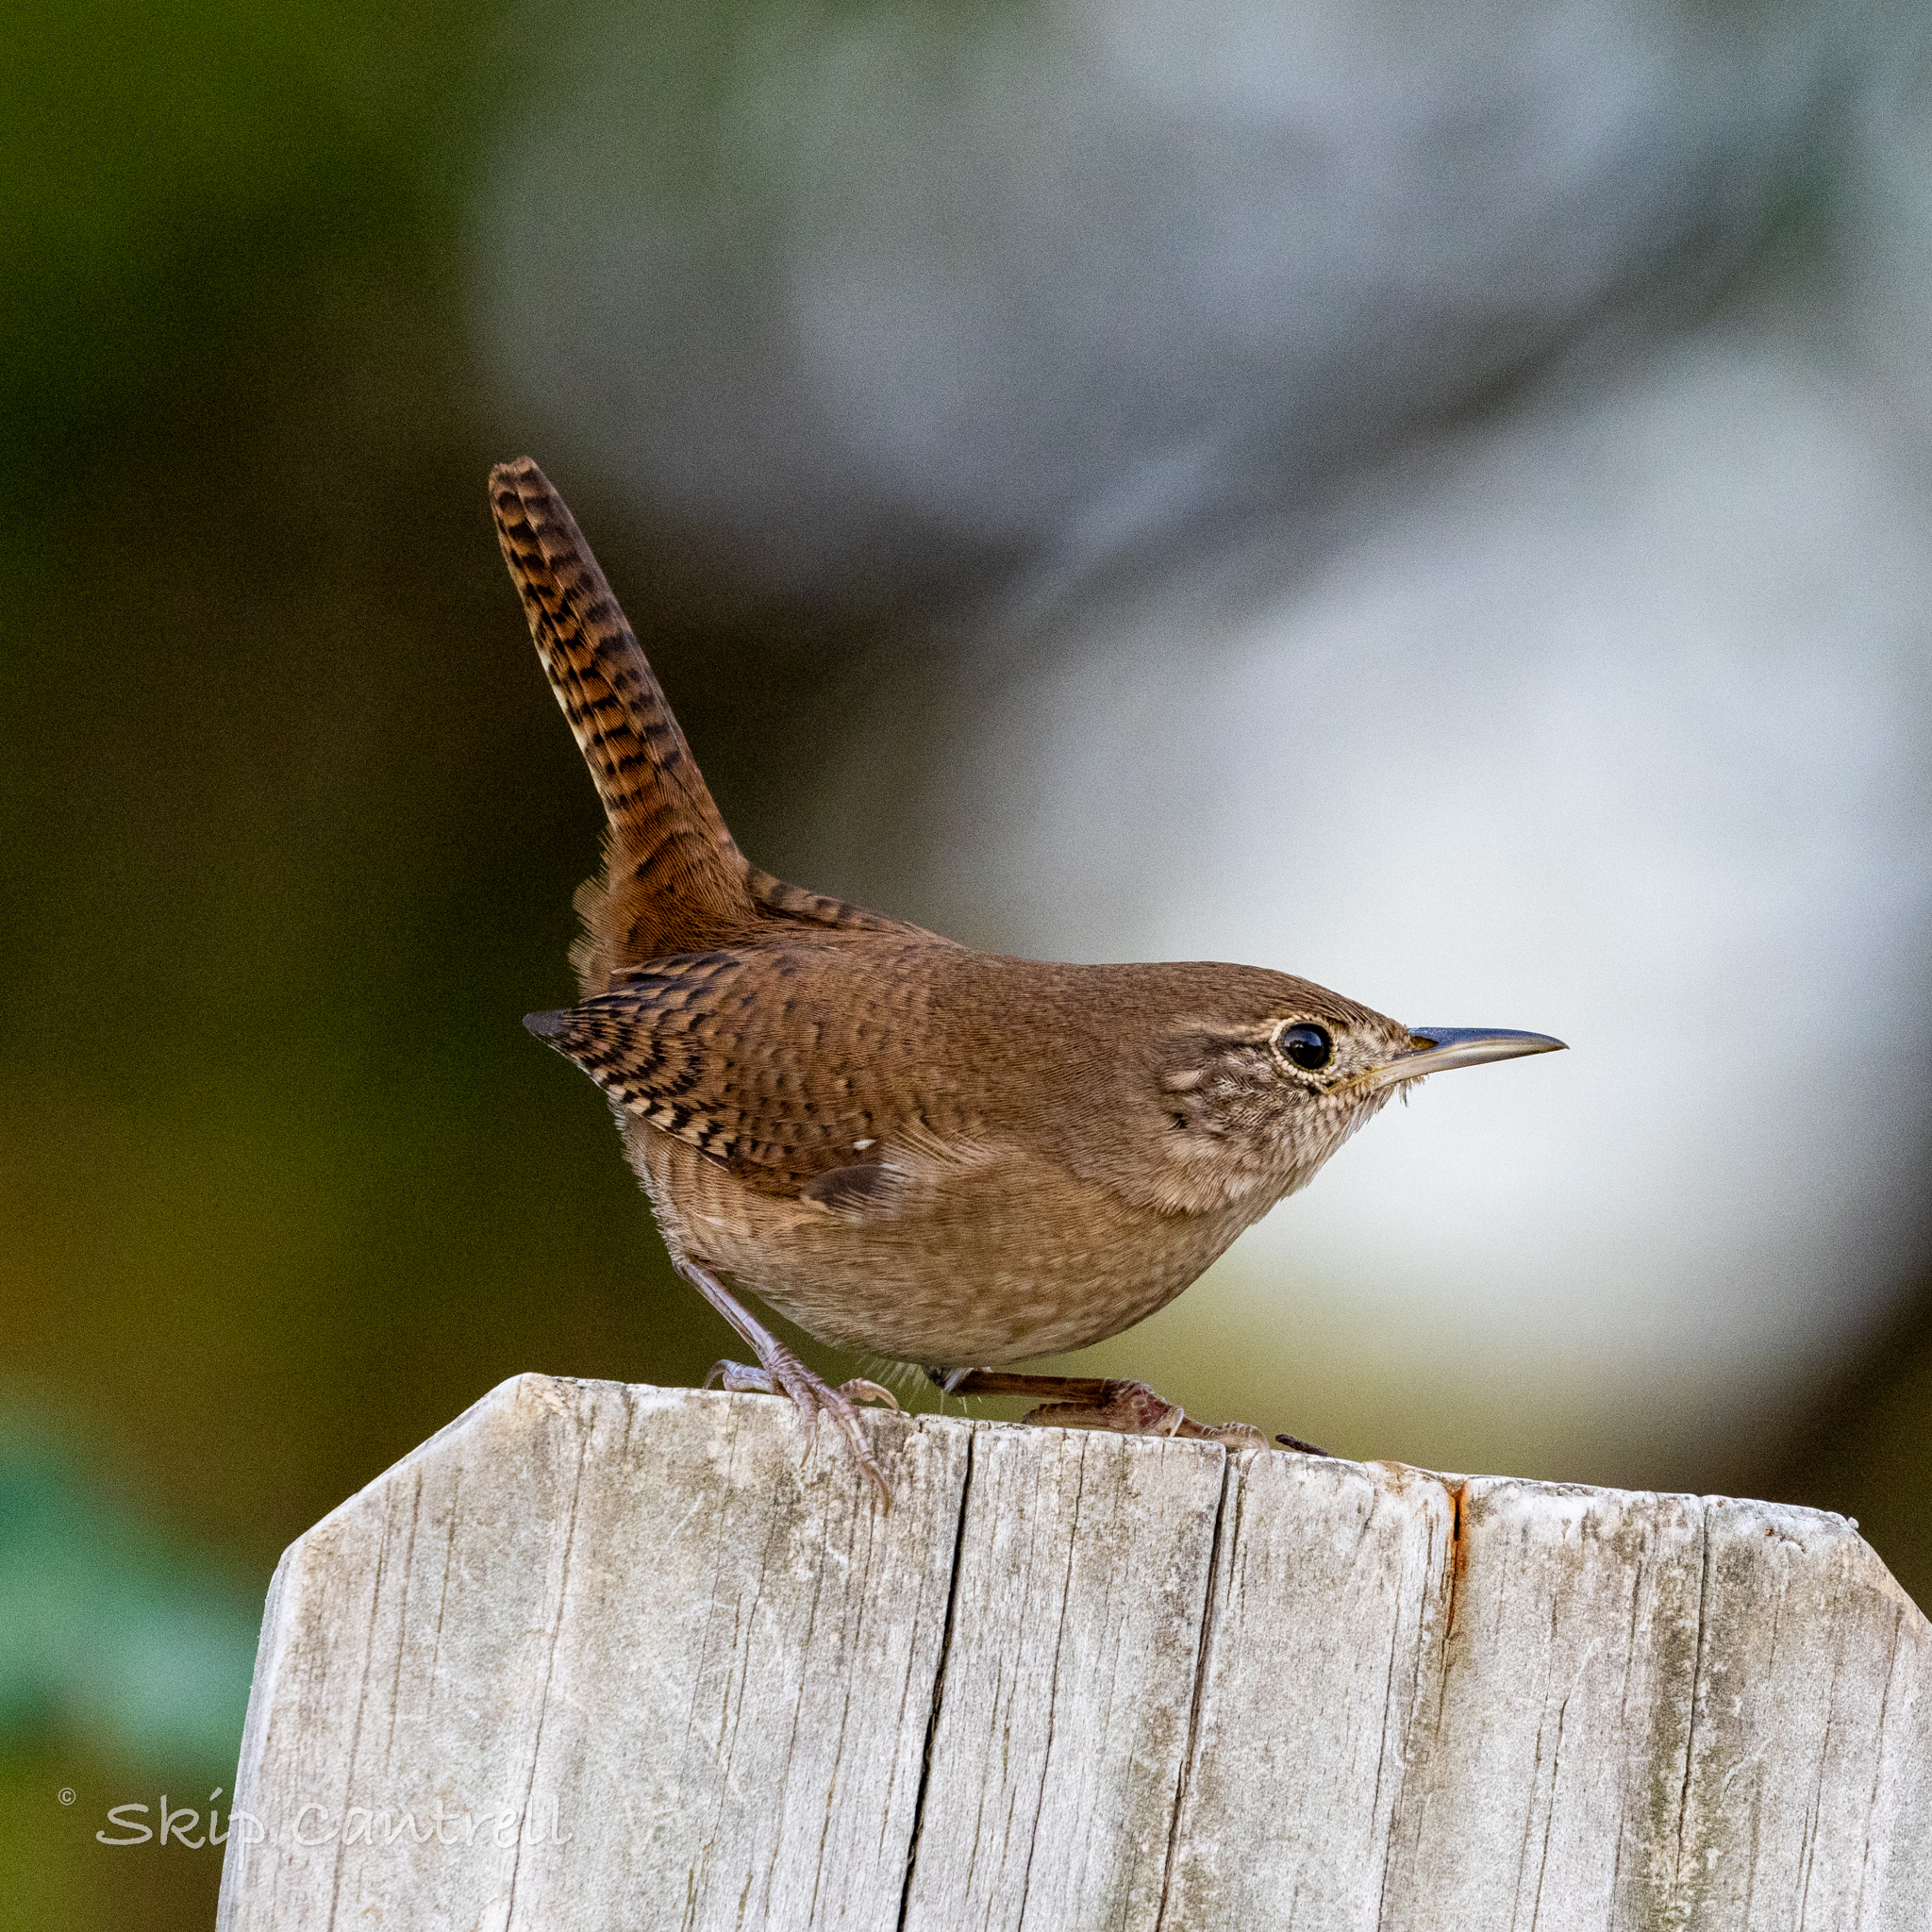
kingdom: Animalia
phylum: Chordata
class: Aves
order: Passeriformes
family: Troglodytidae
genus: Troglodytes
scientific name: Troglodytes aedon
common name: House wren
